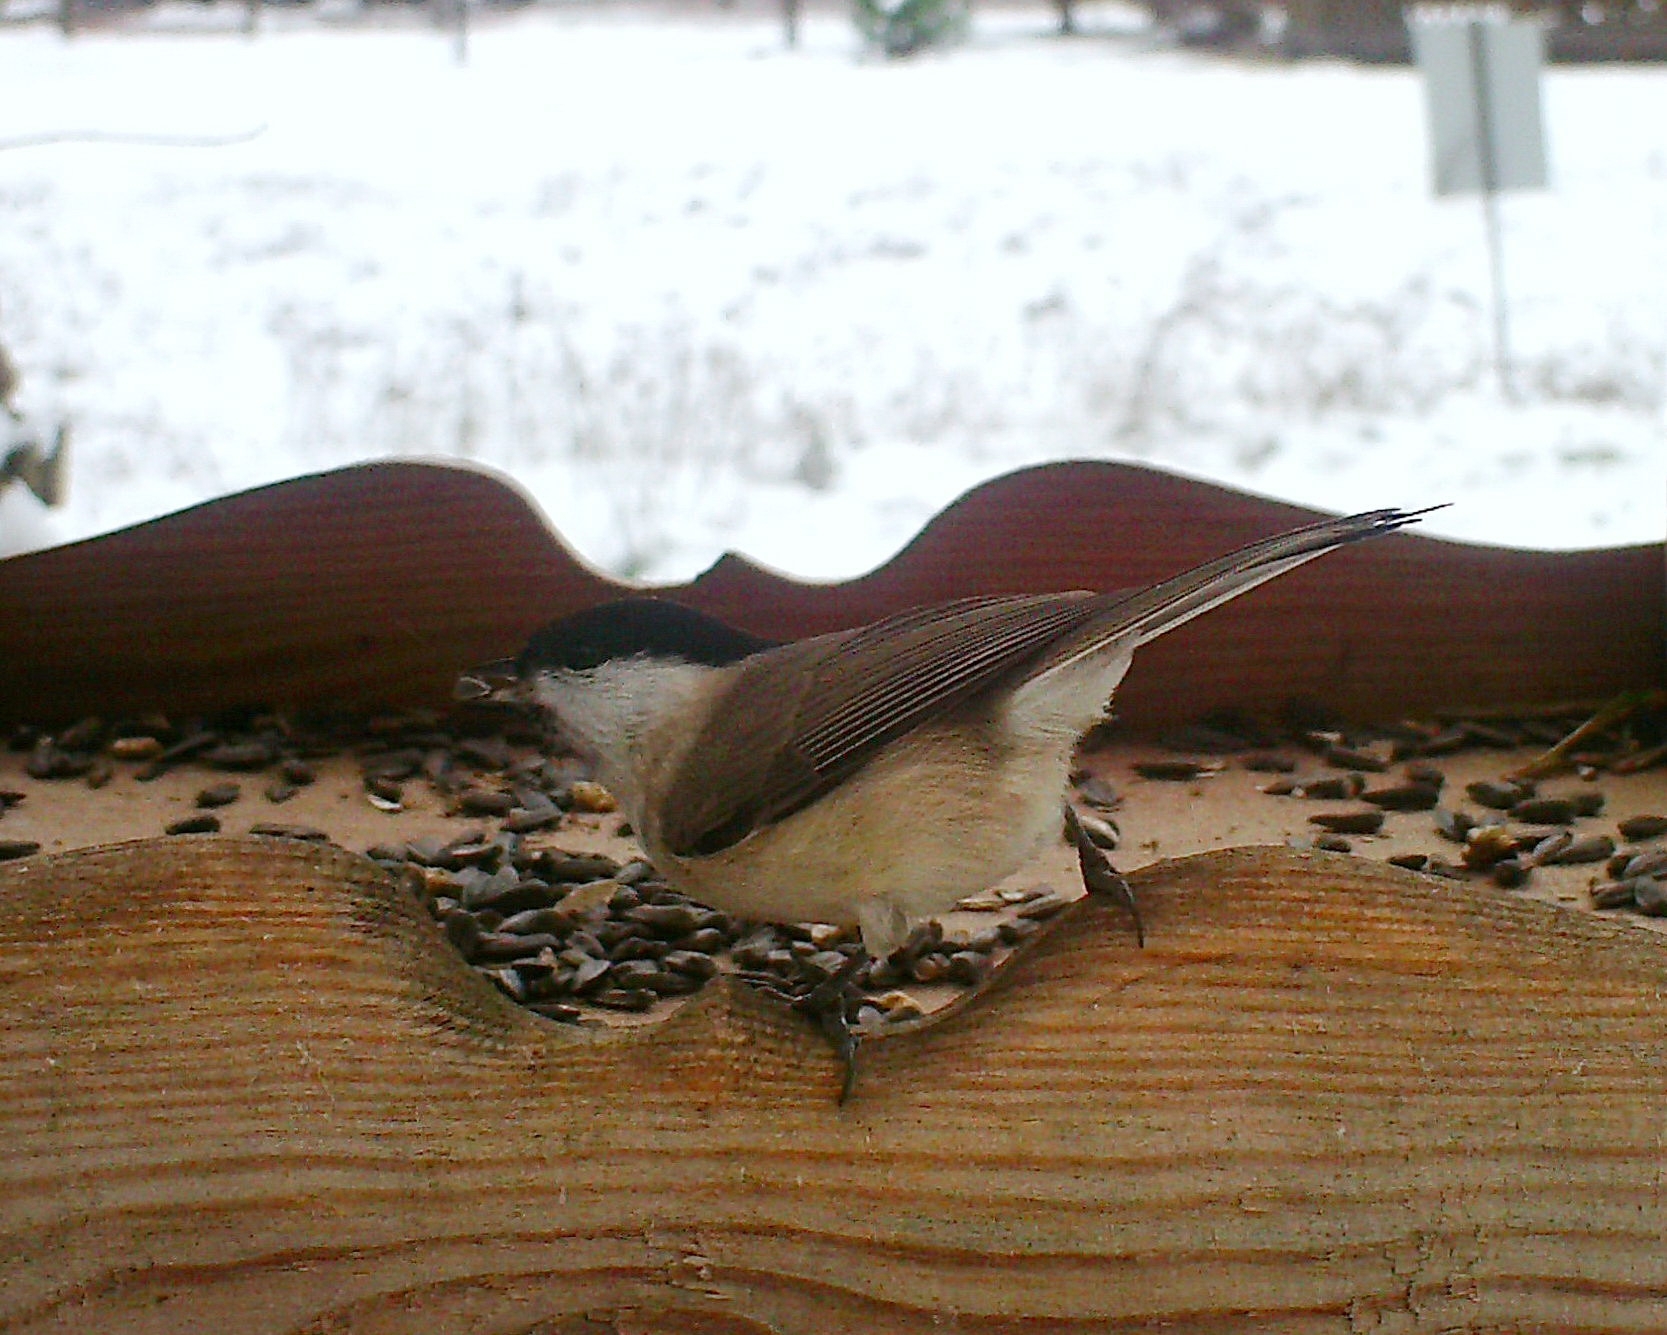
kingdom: Animalia
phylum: Chordata
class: Aves
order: Passeriformes
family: Paridae
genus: Poecile
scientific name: Poecile palustris
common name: Marsh tit
